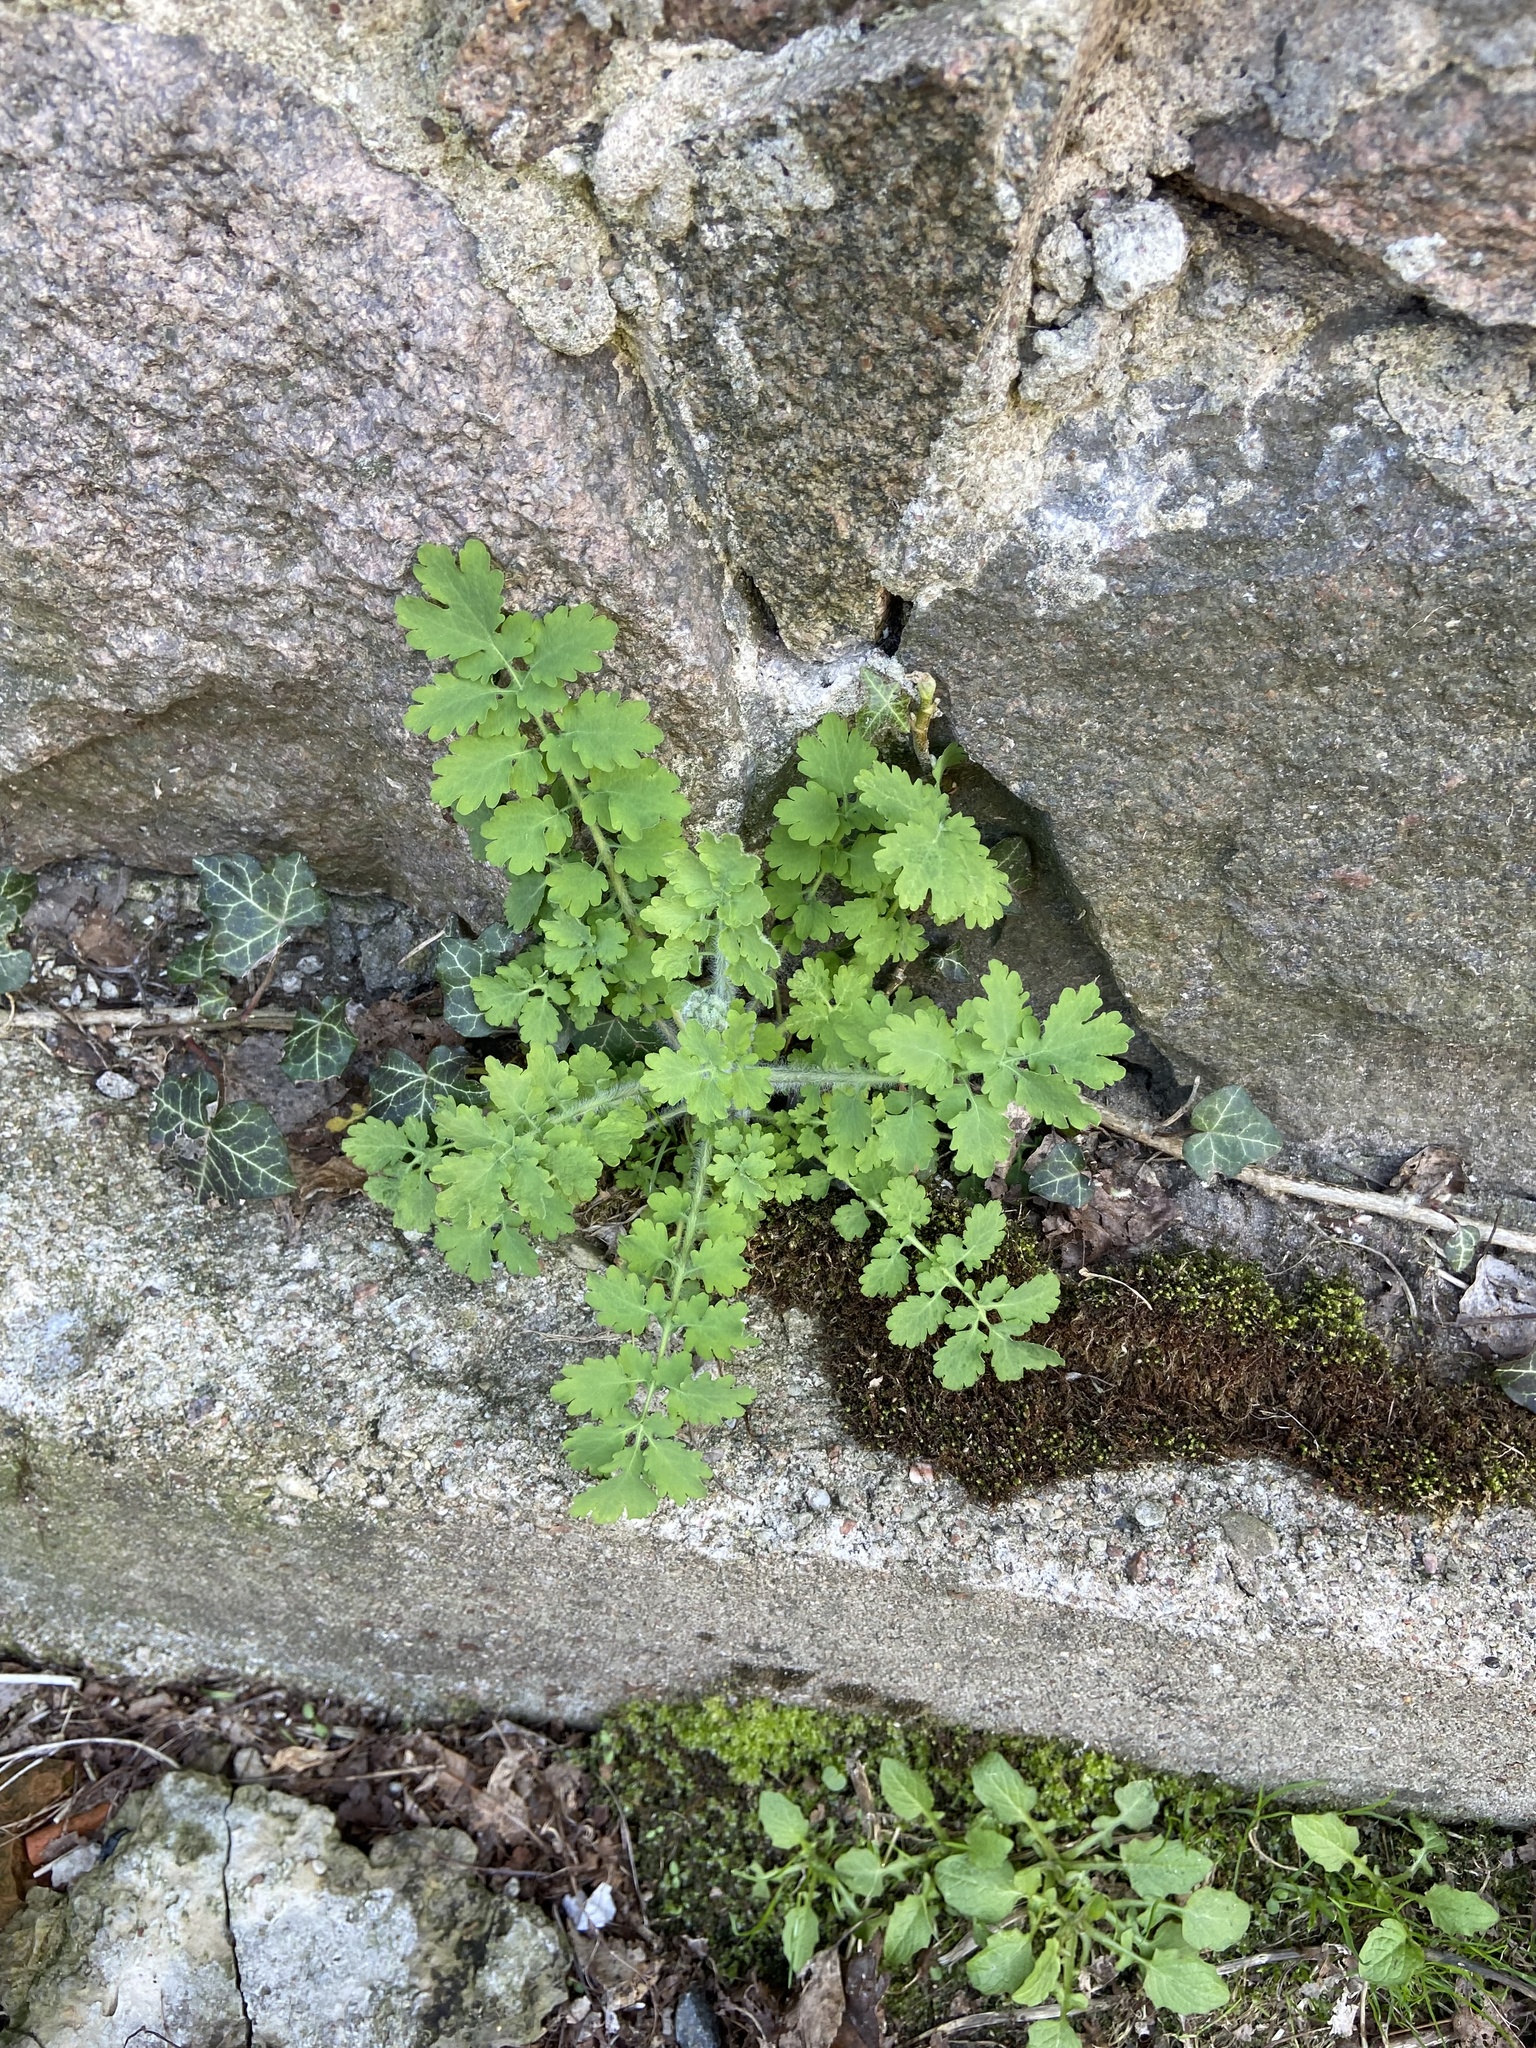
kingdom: Plantae
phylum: Tracheophyta
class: Magnoliopsida
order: Ranunculales
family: Papaveraceae
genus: Chelidonium
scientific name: Chelidonium majus
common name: Greater celandine
